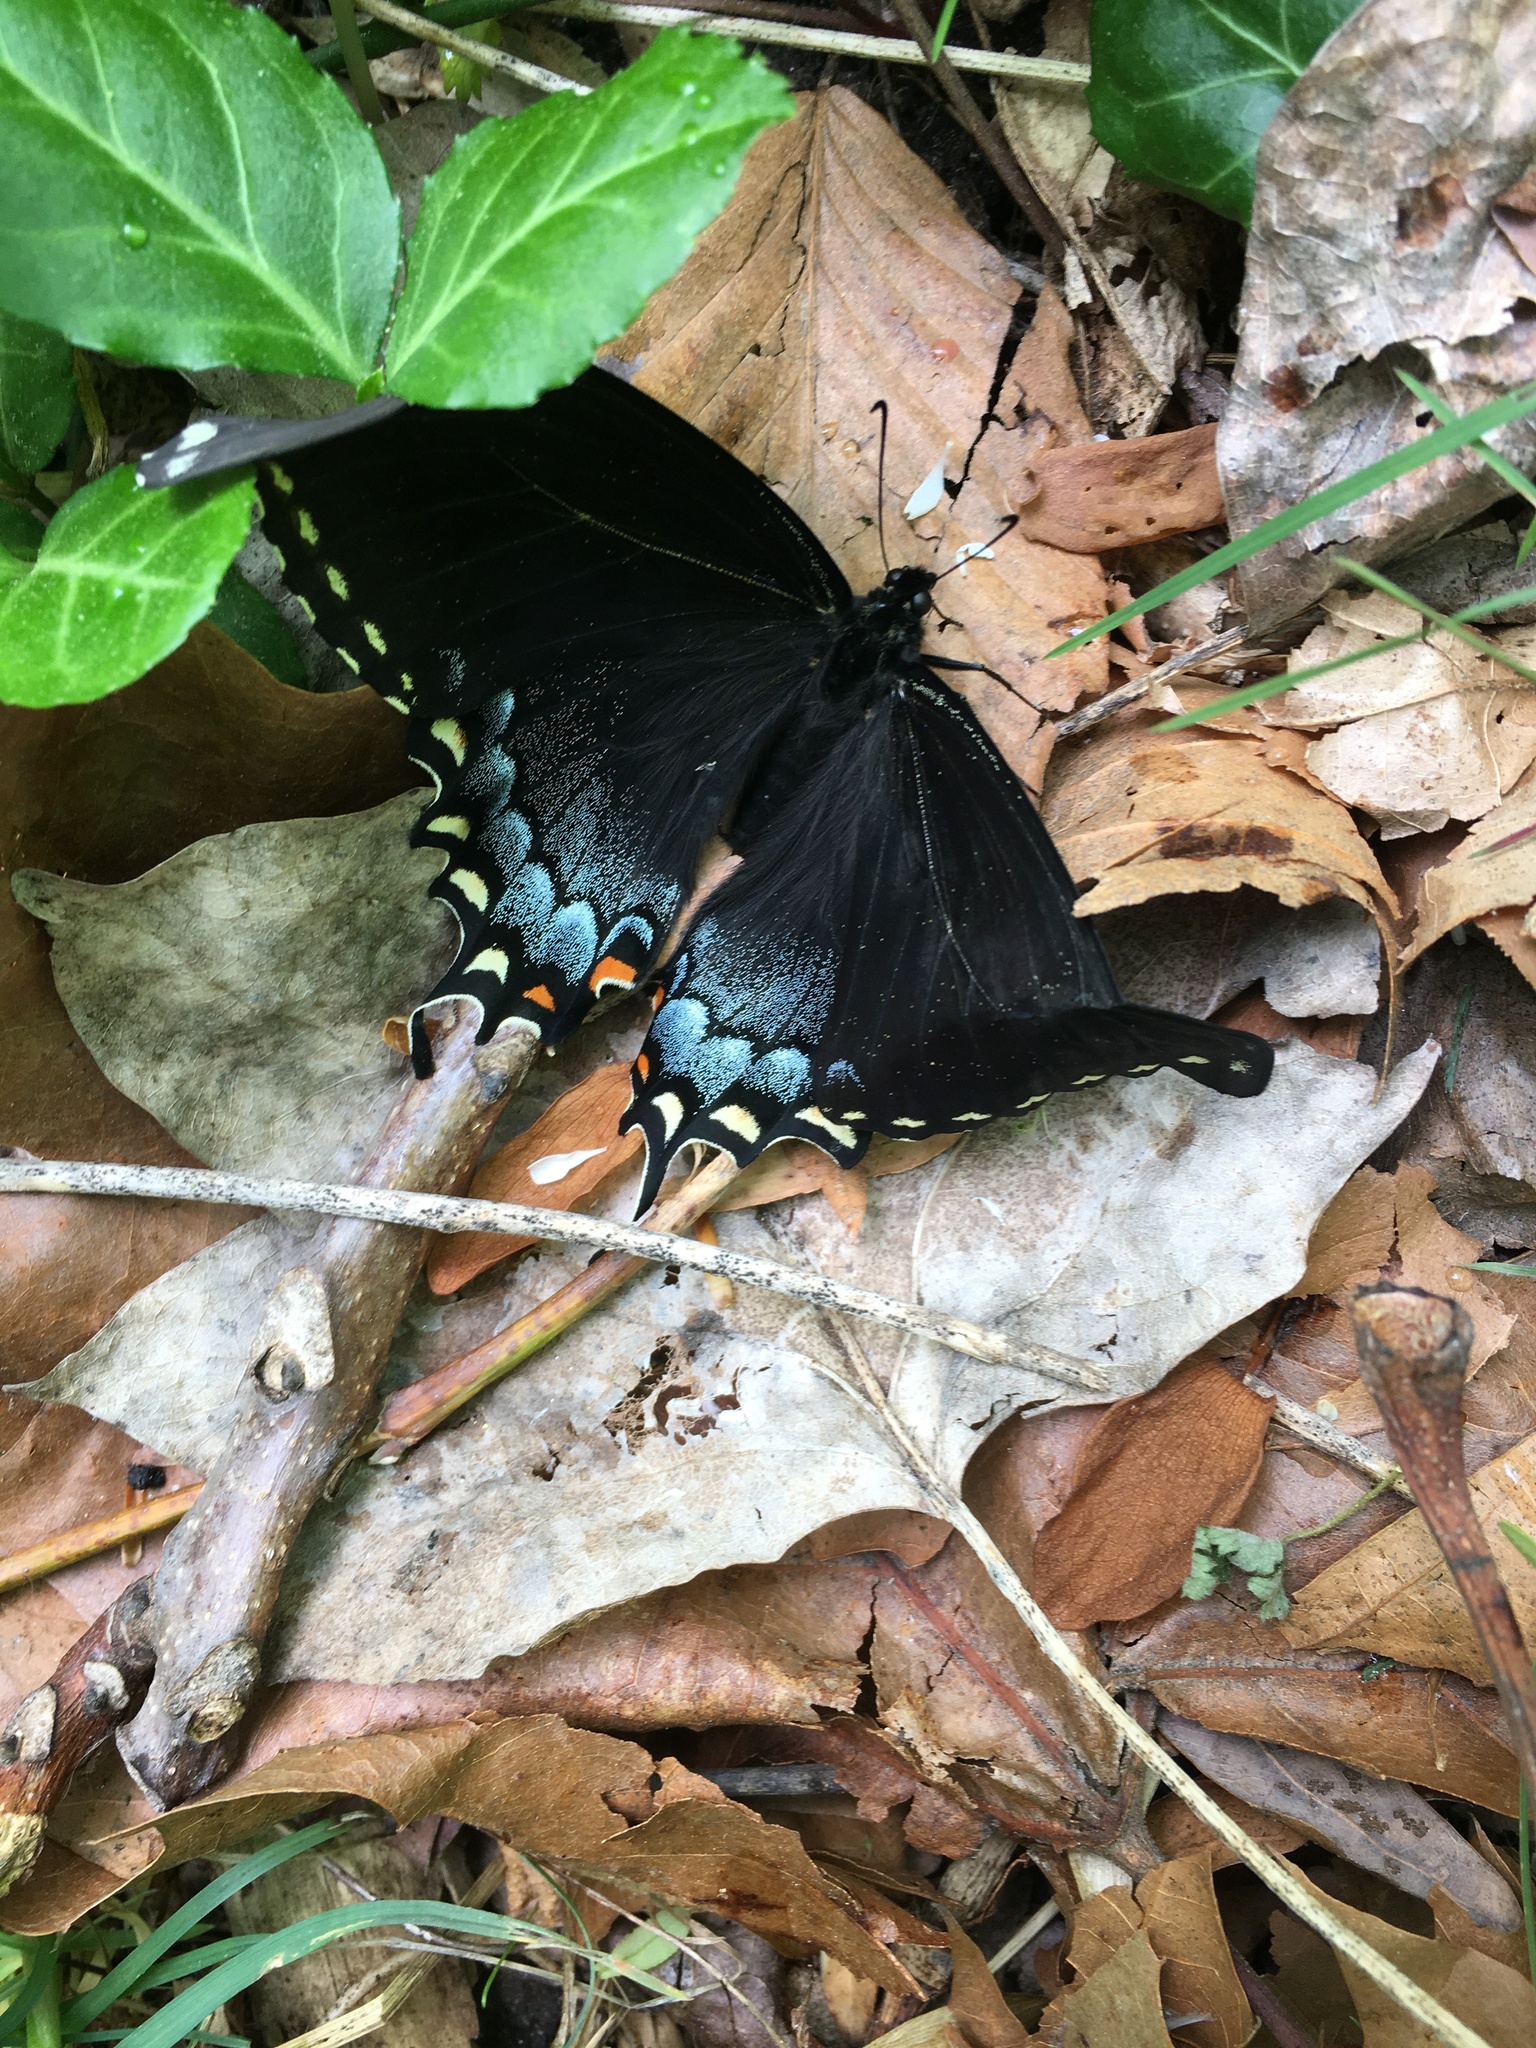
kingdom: Animalia
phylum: Arthropoda
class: Insecta
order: Lepidoptera
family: Papilionidae
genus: Papilio
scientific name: Papilio glaucus
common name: Tiger swallowtail
